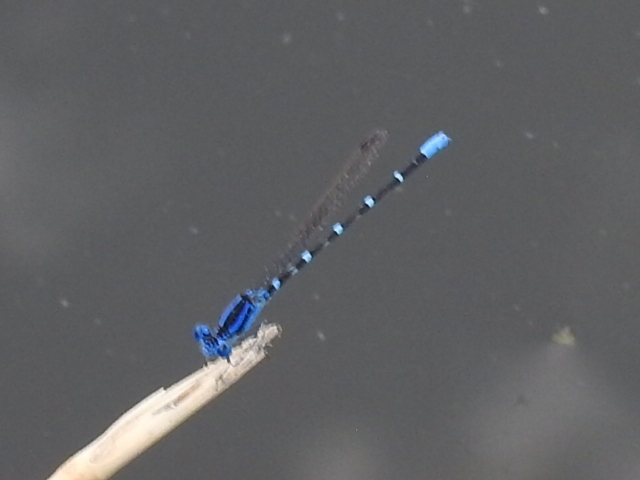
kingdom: Animalia
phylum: Arthropoda
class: Insecta
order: Odonata
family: Coenagrionidae
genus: Argia
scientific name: Argia sedula
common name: Blue-ringed dancer
